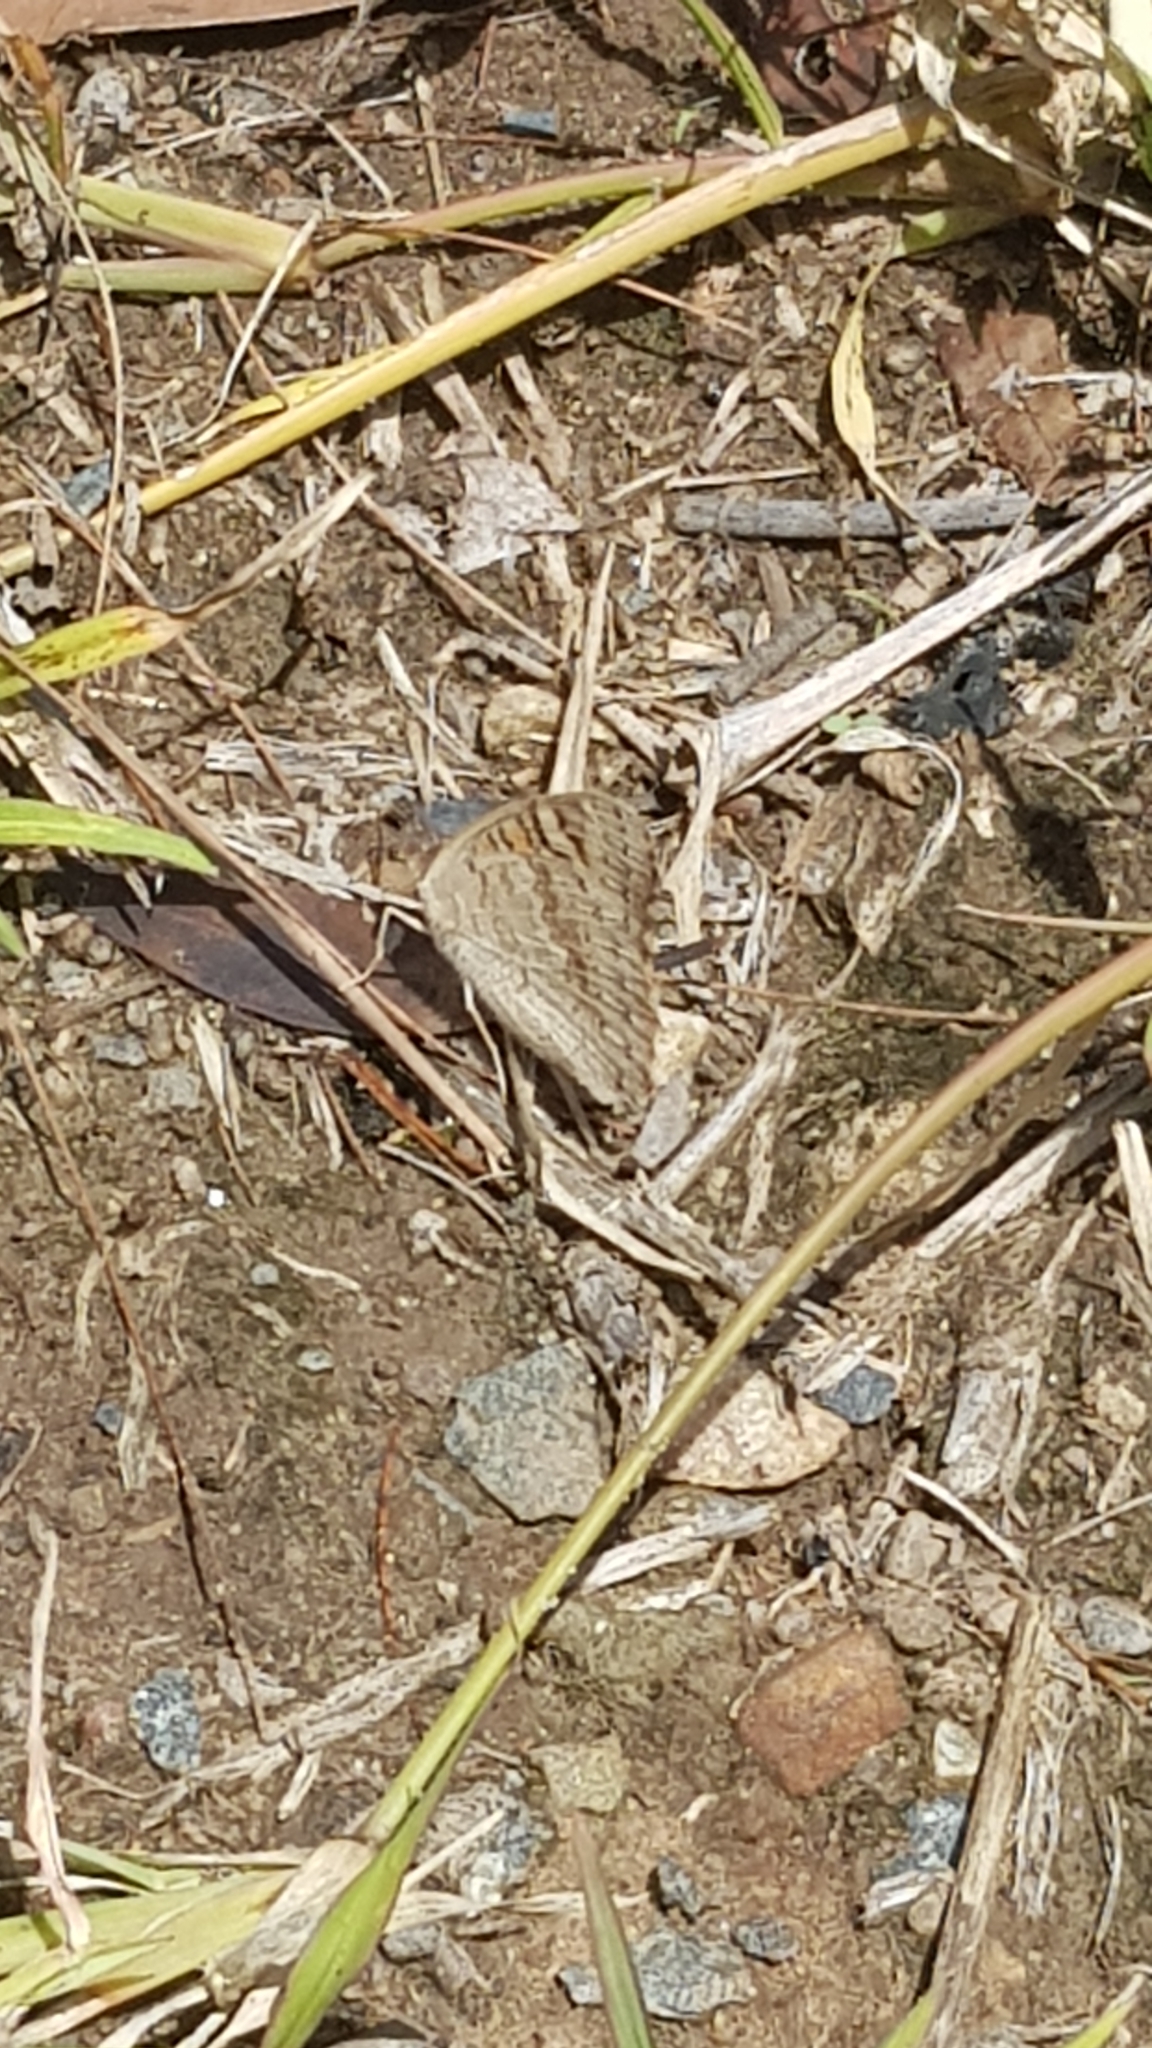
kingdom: Animalia
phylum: Arthropoda
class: Insecta
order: Lepidoptera
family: Nymphalidae
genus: Junonia
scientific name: Junonia villida
